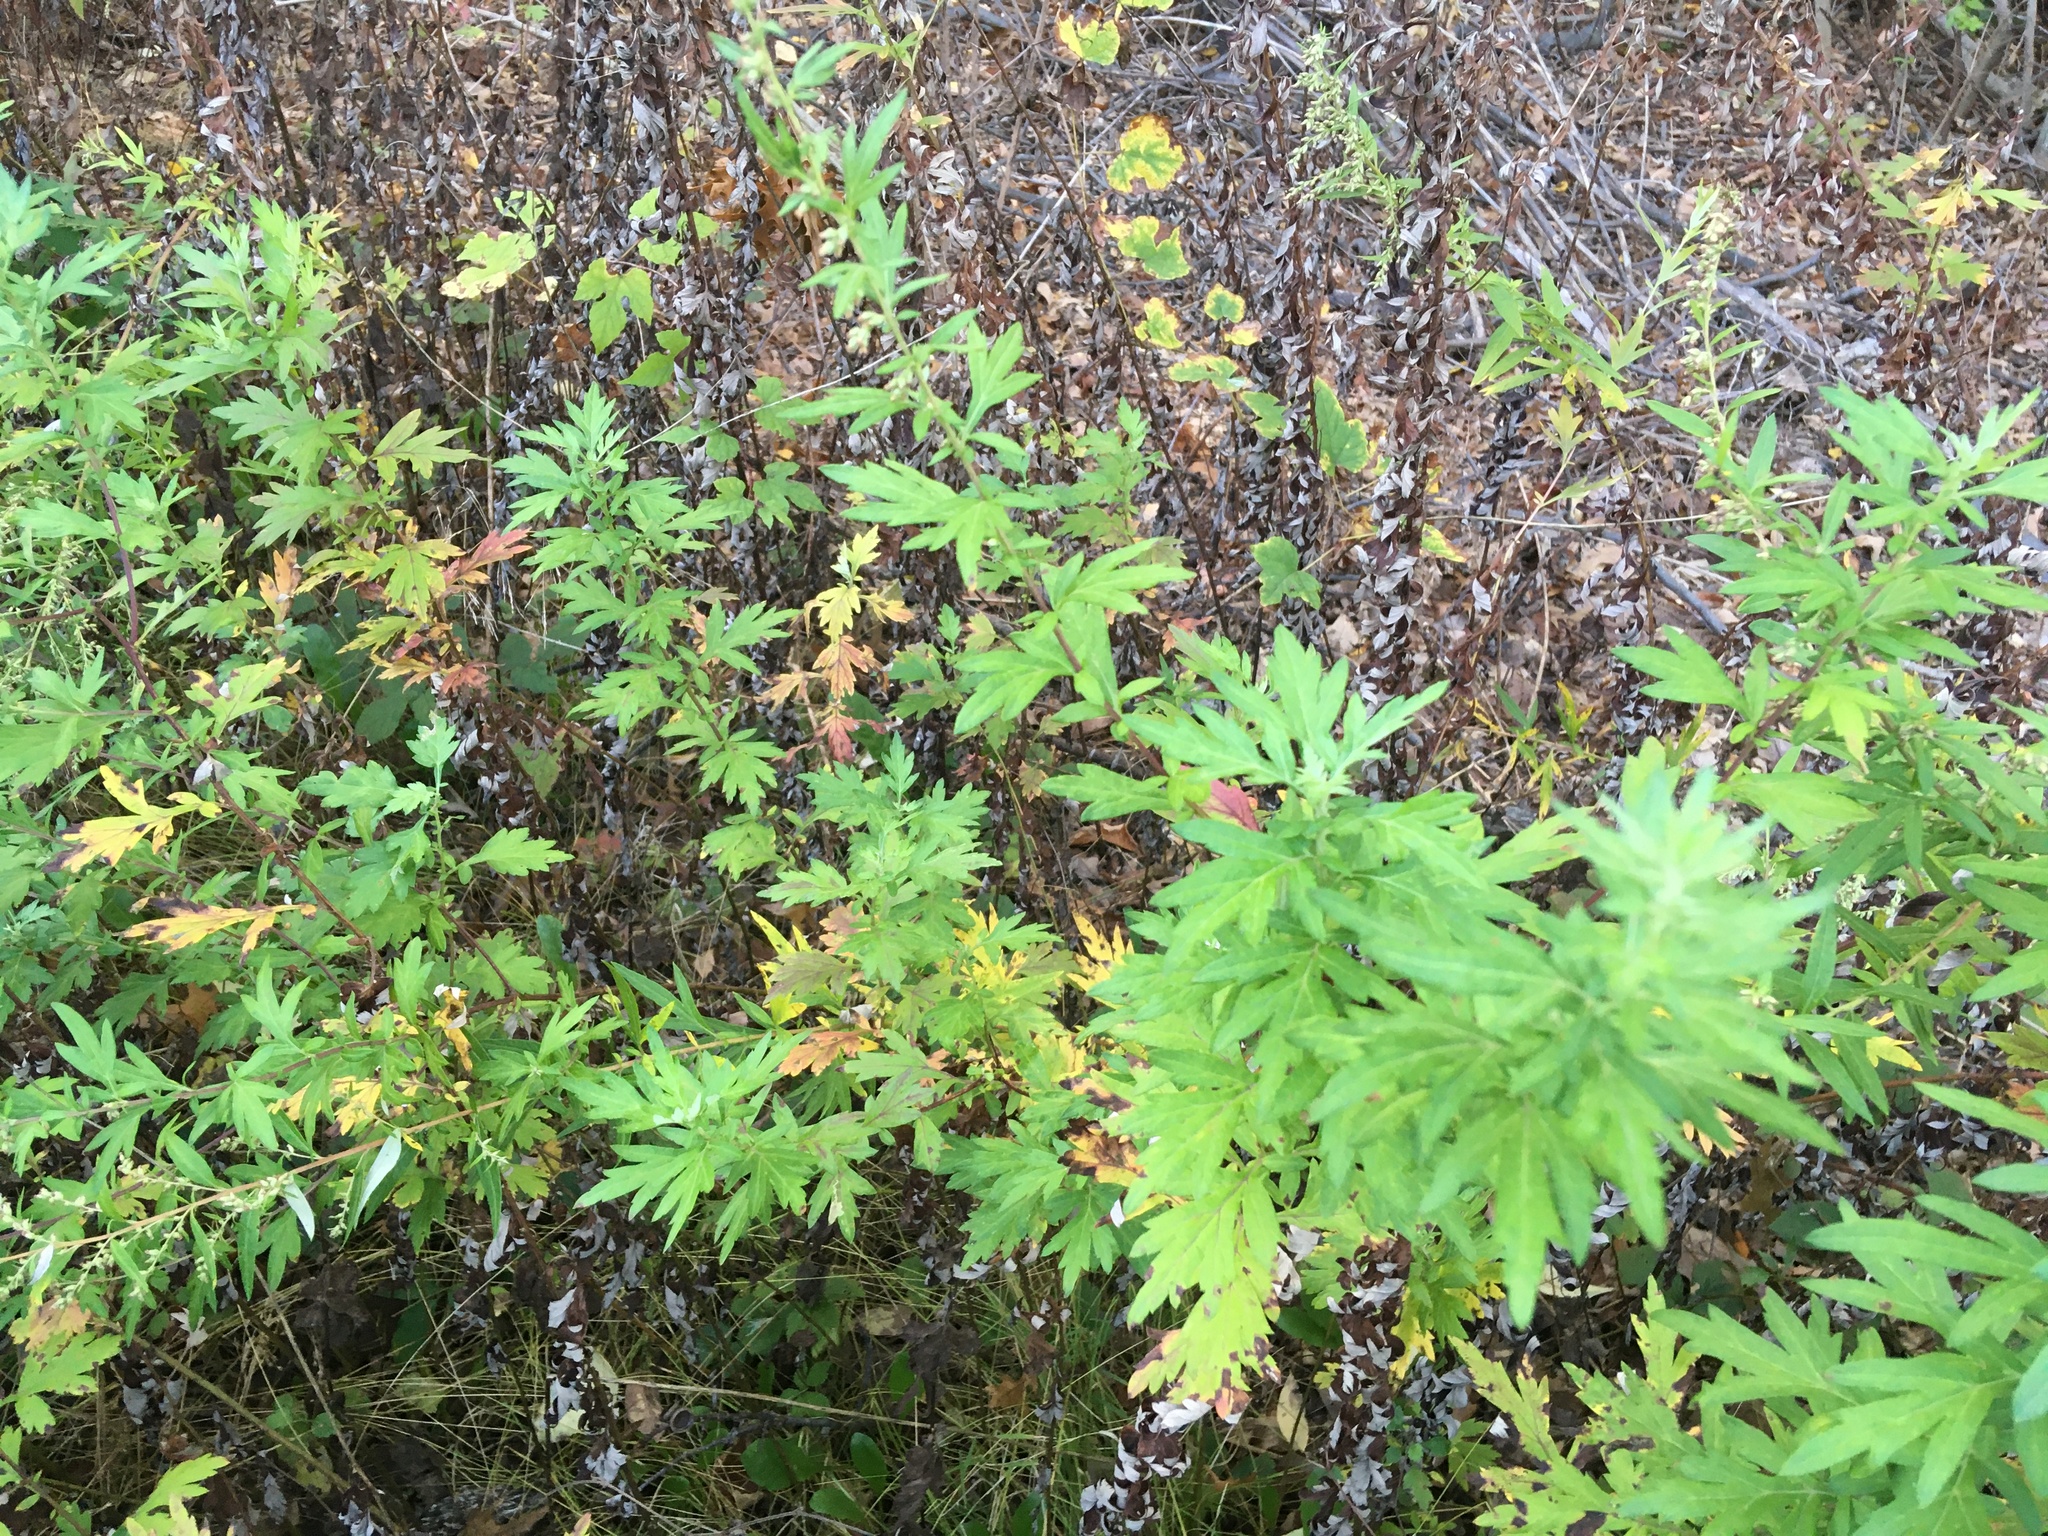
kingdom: Plantae
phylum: Tracheophyta
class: Magnoliopsida
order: Asterales
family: Asteraceae
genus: Artemisia
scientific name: Artemisia vulgaris
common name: Mugwort
